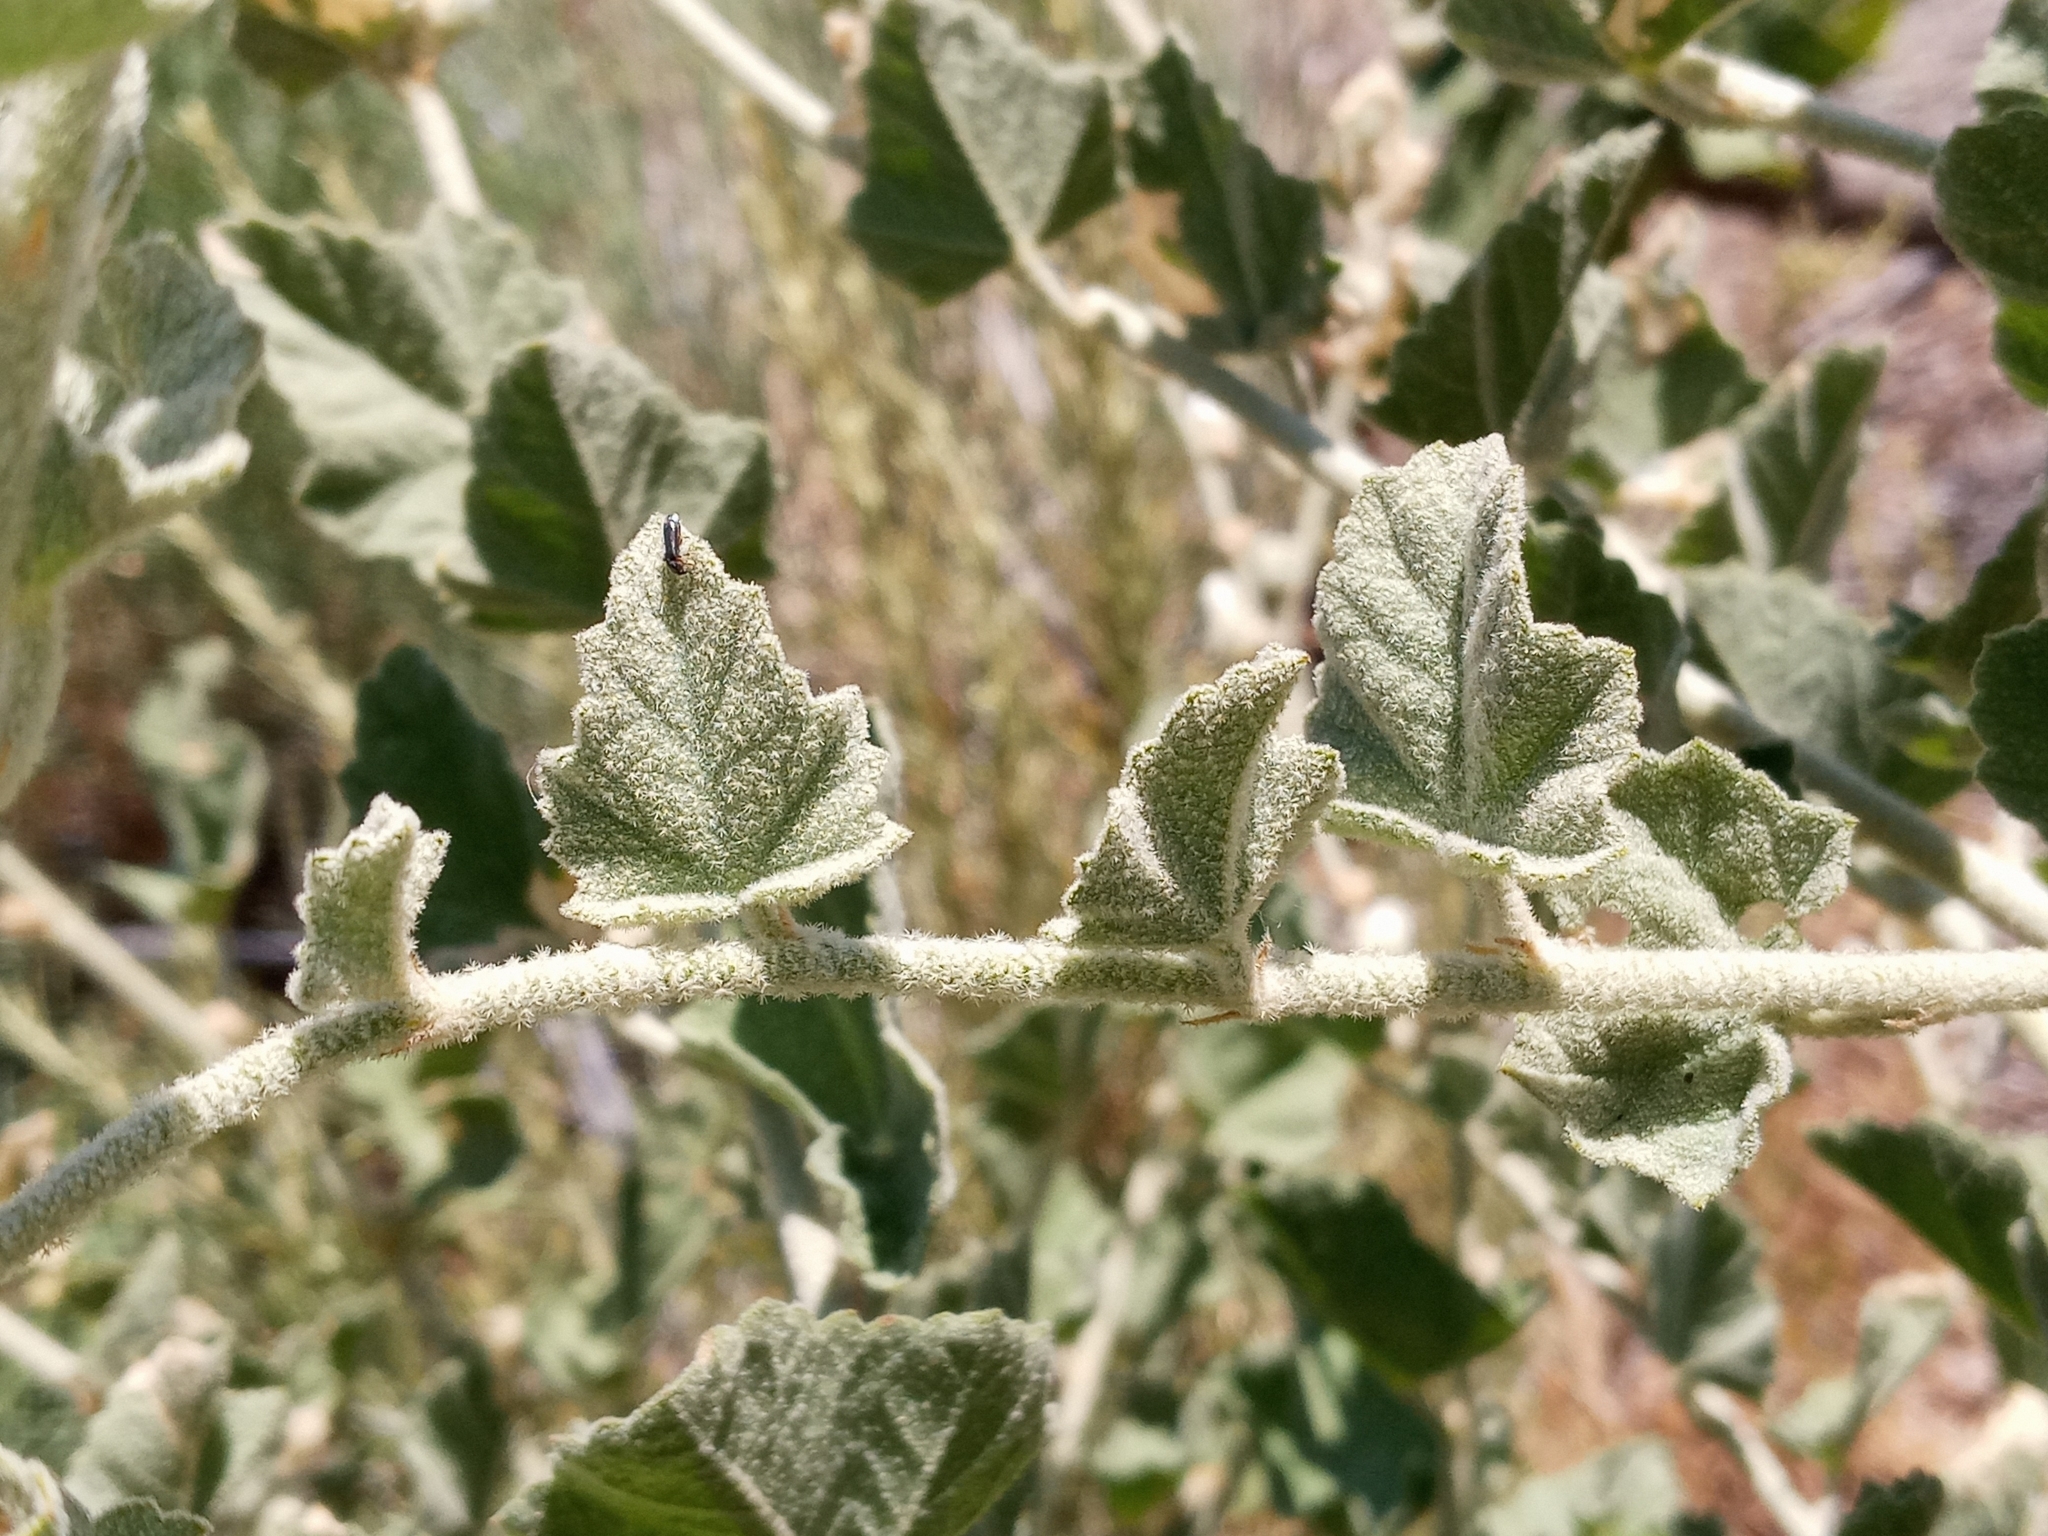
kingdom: Plantae
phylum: Tracheophyta
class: Magnoliopsida
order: Malvales
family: Malvaceae
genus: Malacothamnus
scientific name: Malacothamnus fremontii
